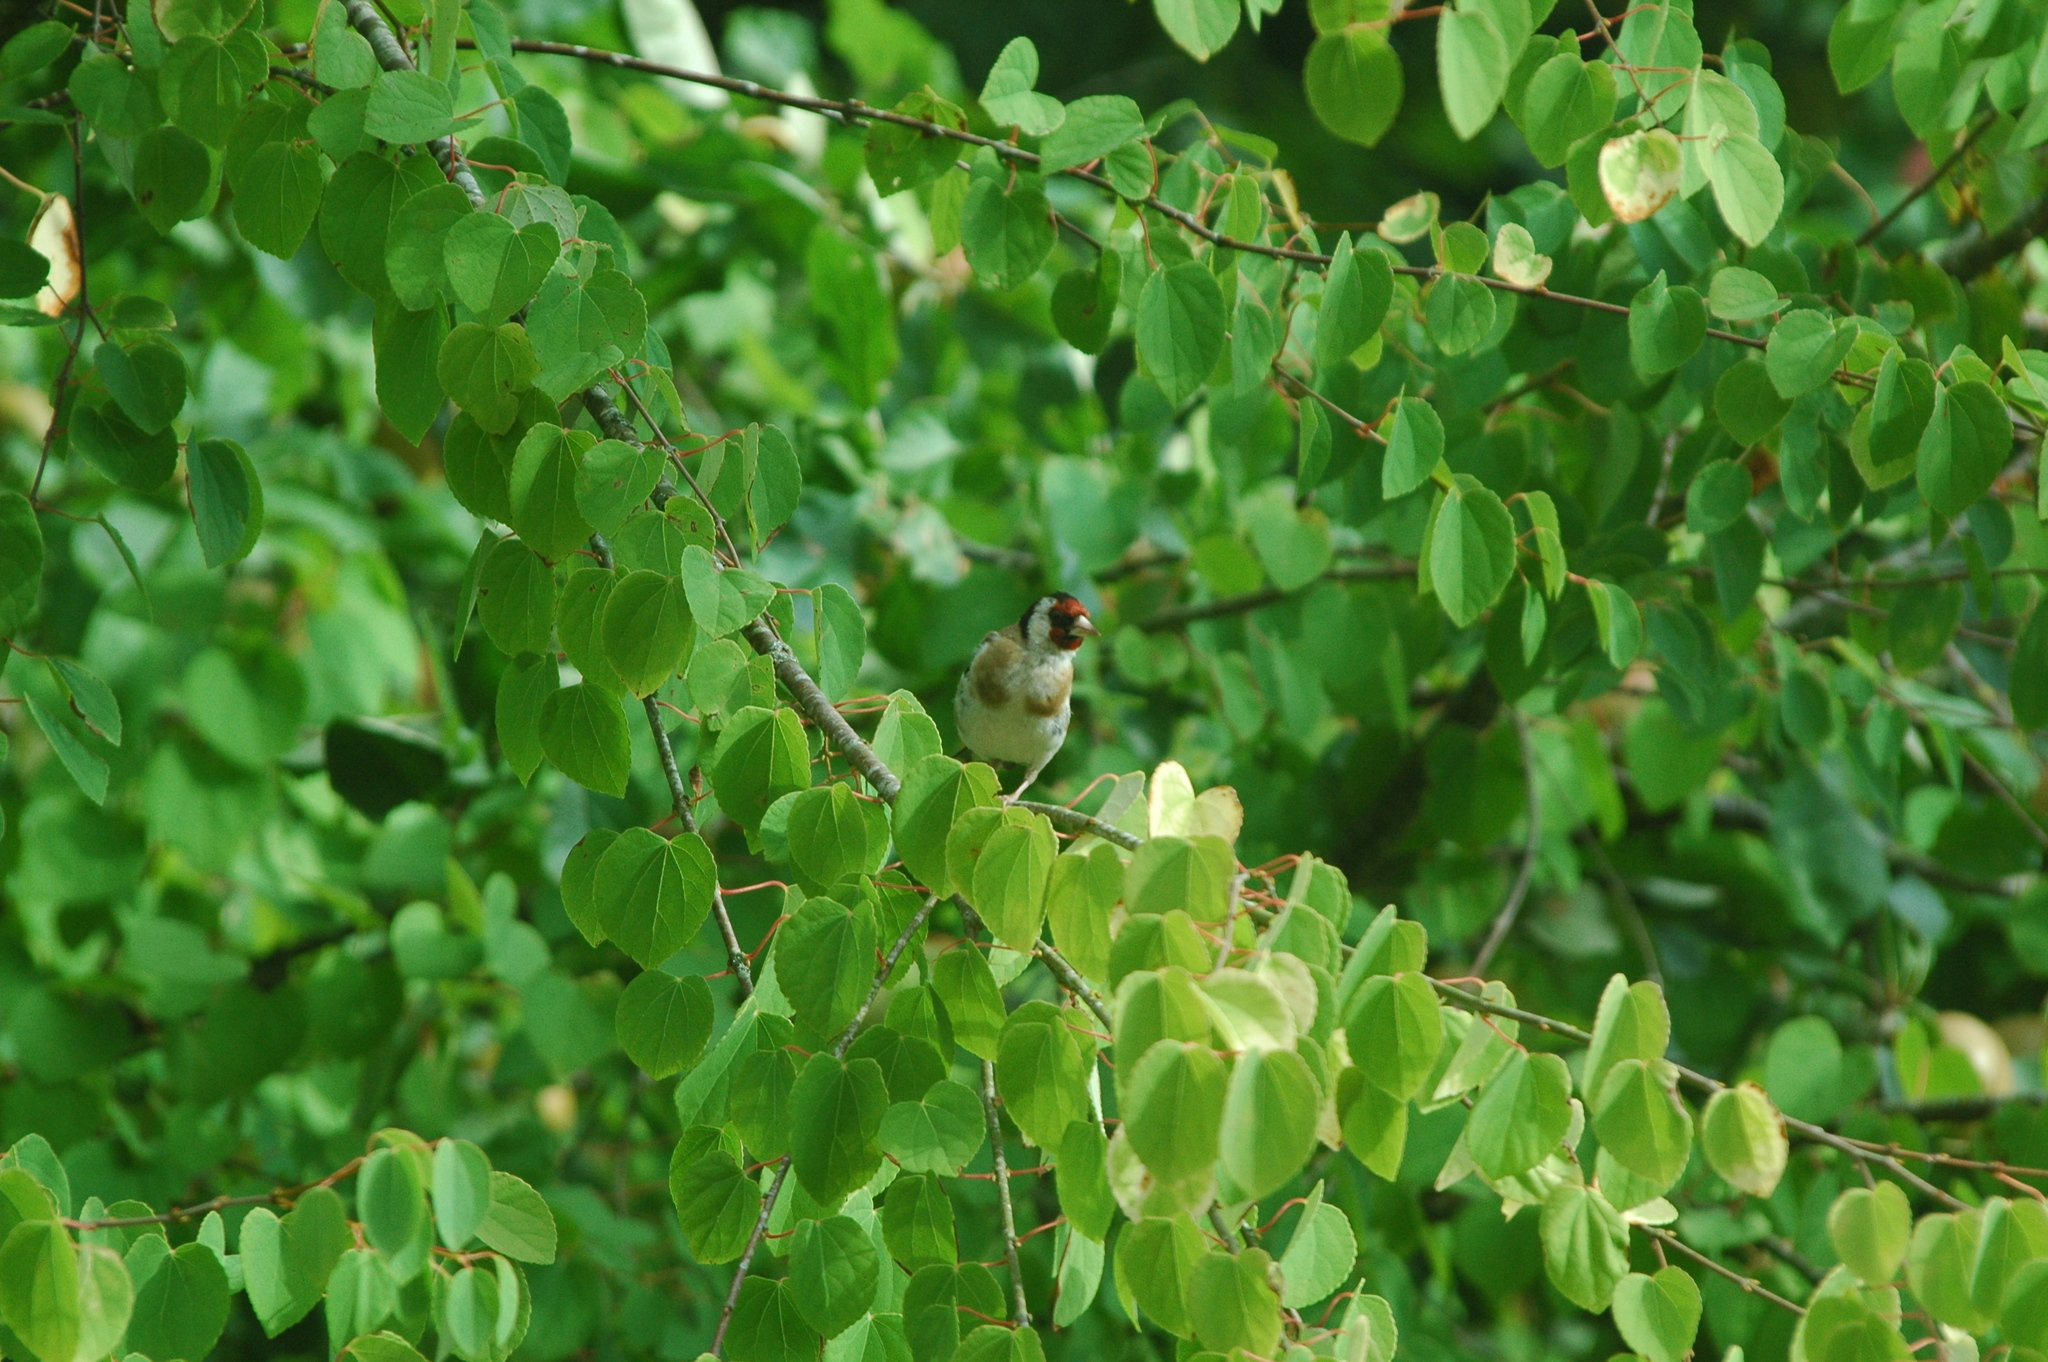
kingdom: Animalia
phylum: Chordata
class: Aves
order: Passeriformes
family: Fringillidae
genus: Carduelis
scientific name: Carduelis carduelis
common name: European goldfinch
